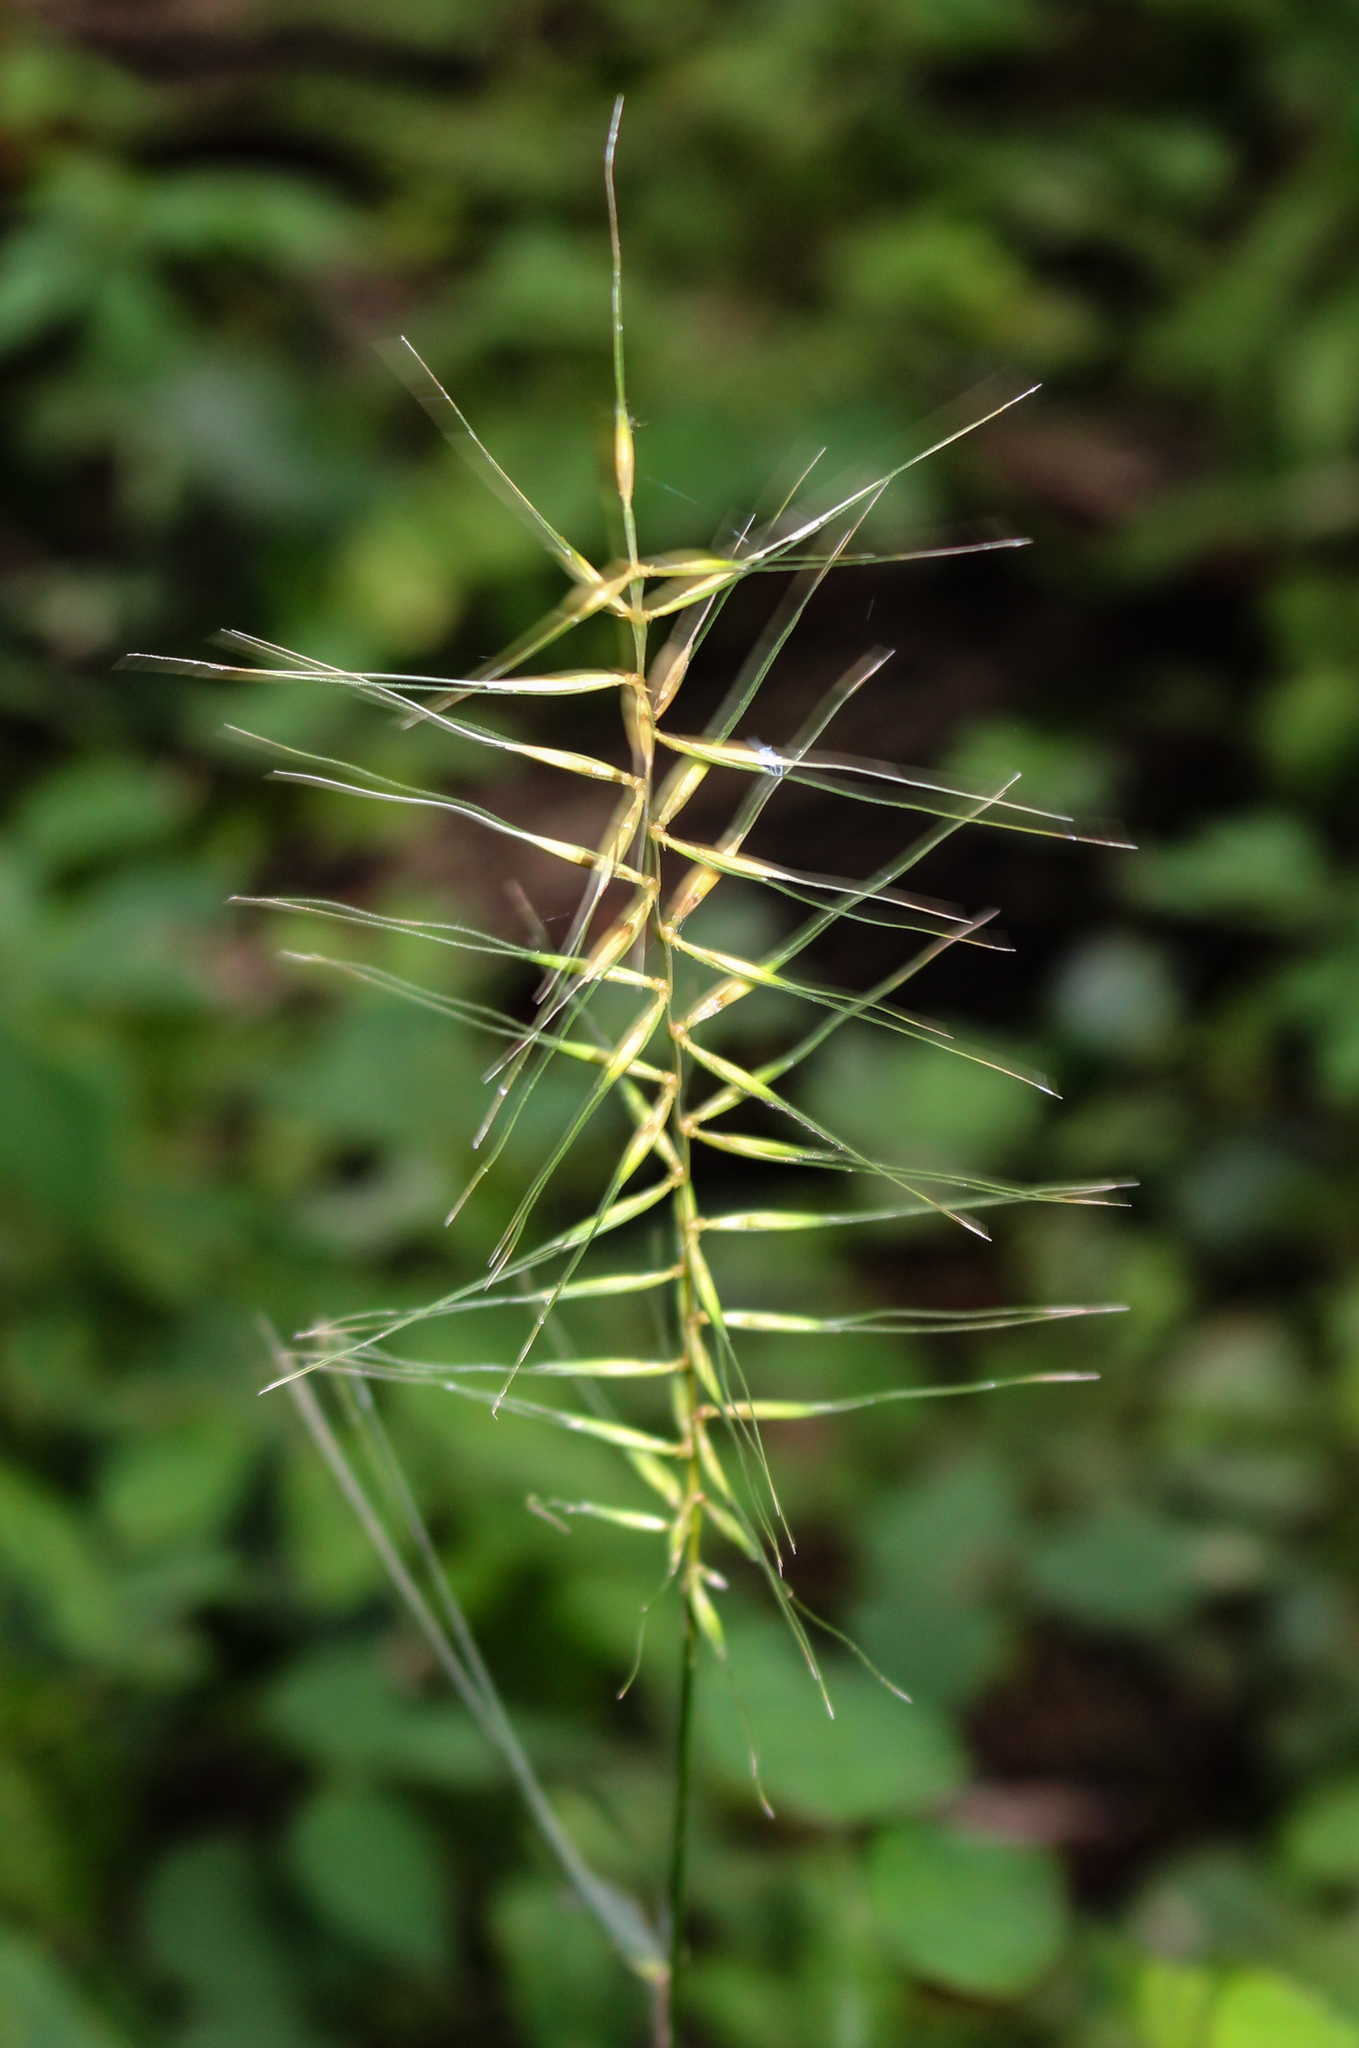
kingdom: Plantae
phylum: Tracheophyta
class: Liliopsida
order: Poales
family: Poaceae
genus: Elymus
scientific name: Elymus hystrix
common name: Bottlebrush grass
